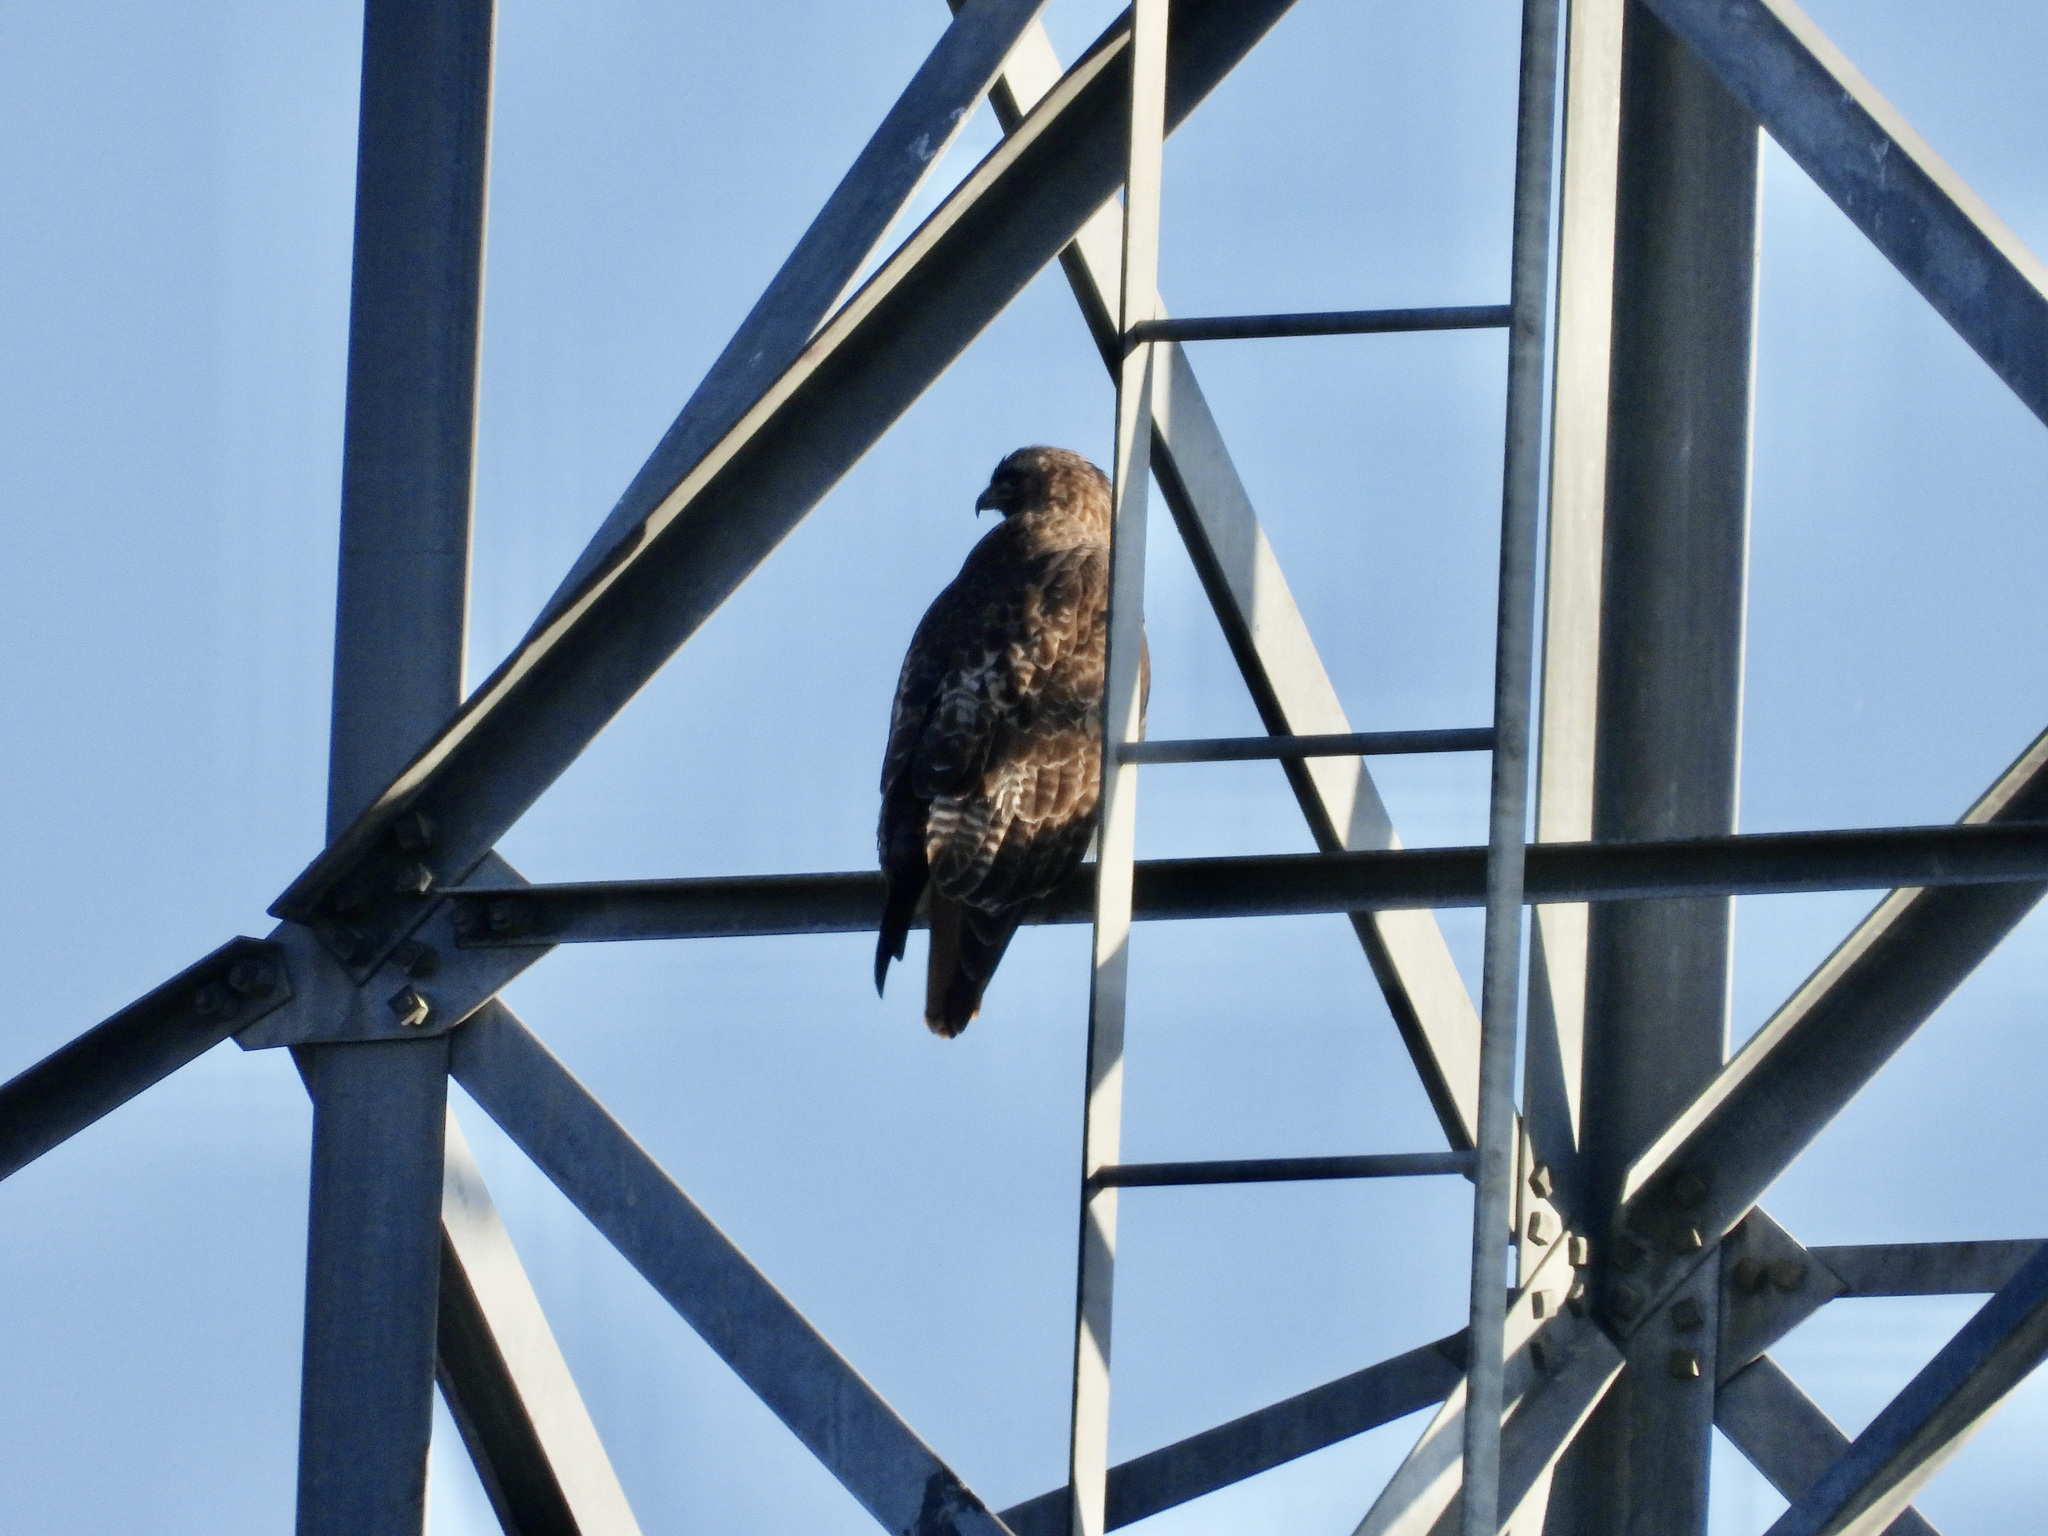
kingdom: Animalia
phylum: Chordata
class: Aves
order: Accipitriformes
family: Accipitridae
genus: Buteo
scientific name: Buteo jamaicensis
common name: Red-tailed hawk
